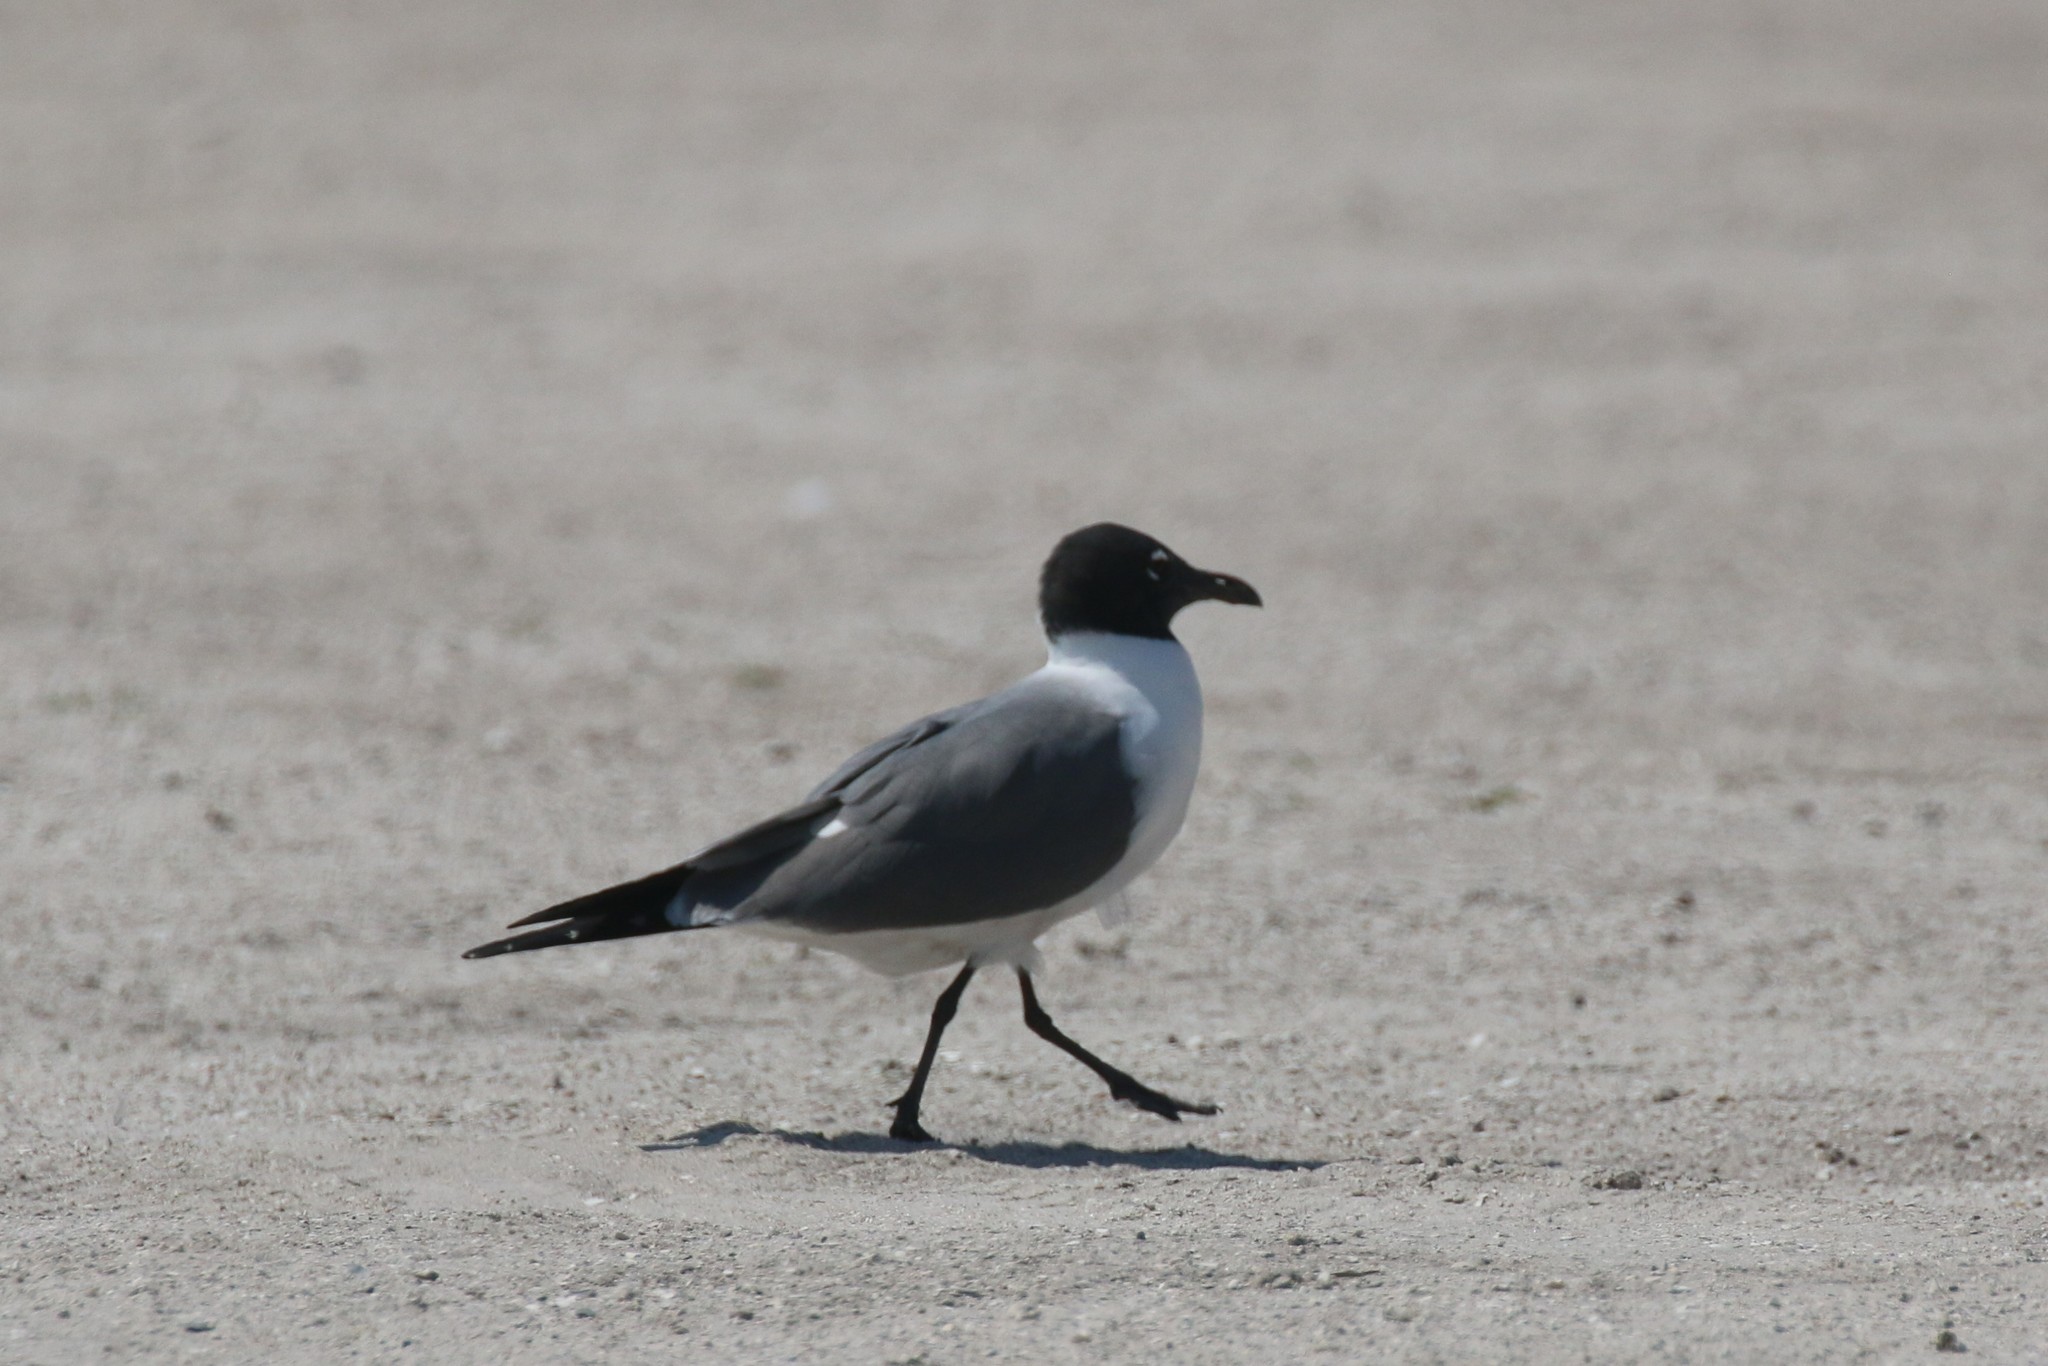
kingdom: Animalia
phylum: Chordata
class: Aves
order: Charadriiformes
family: Laridae
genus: Leucophaeus
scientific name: Leucophaeus atricilla
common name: Laughing gull
